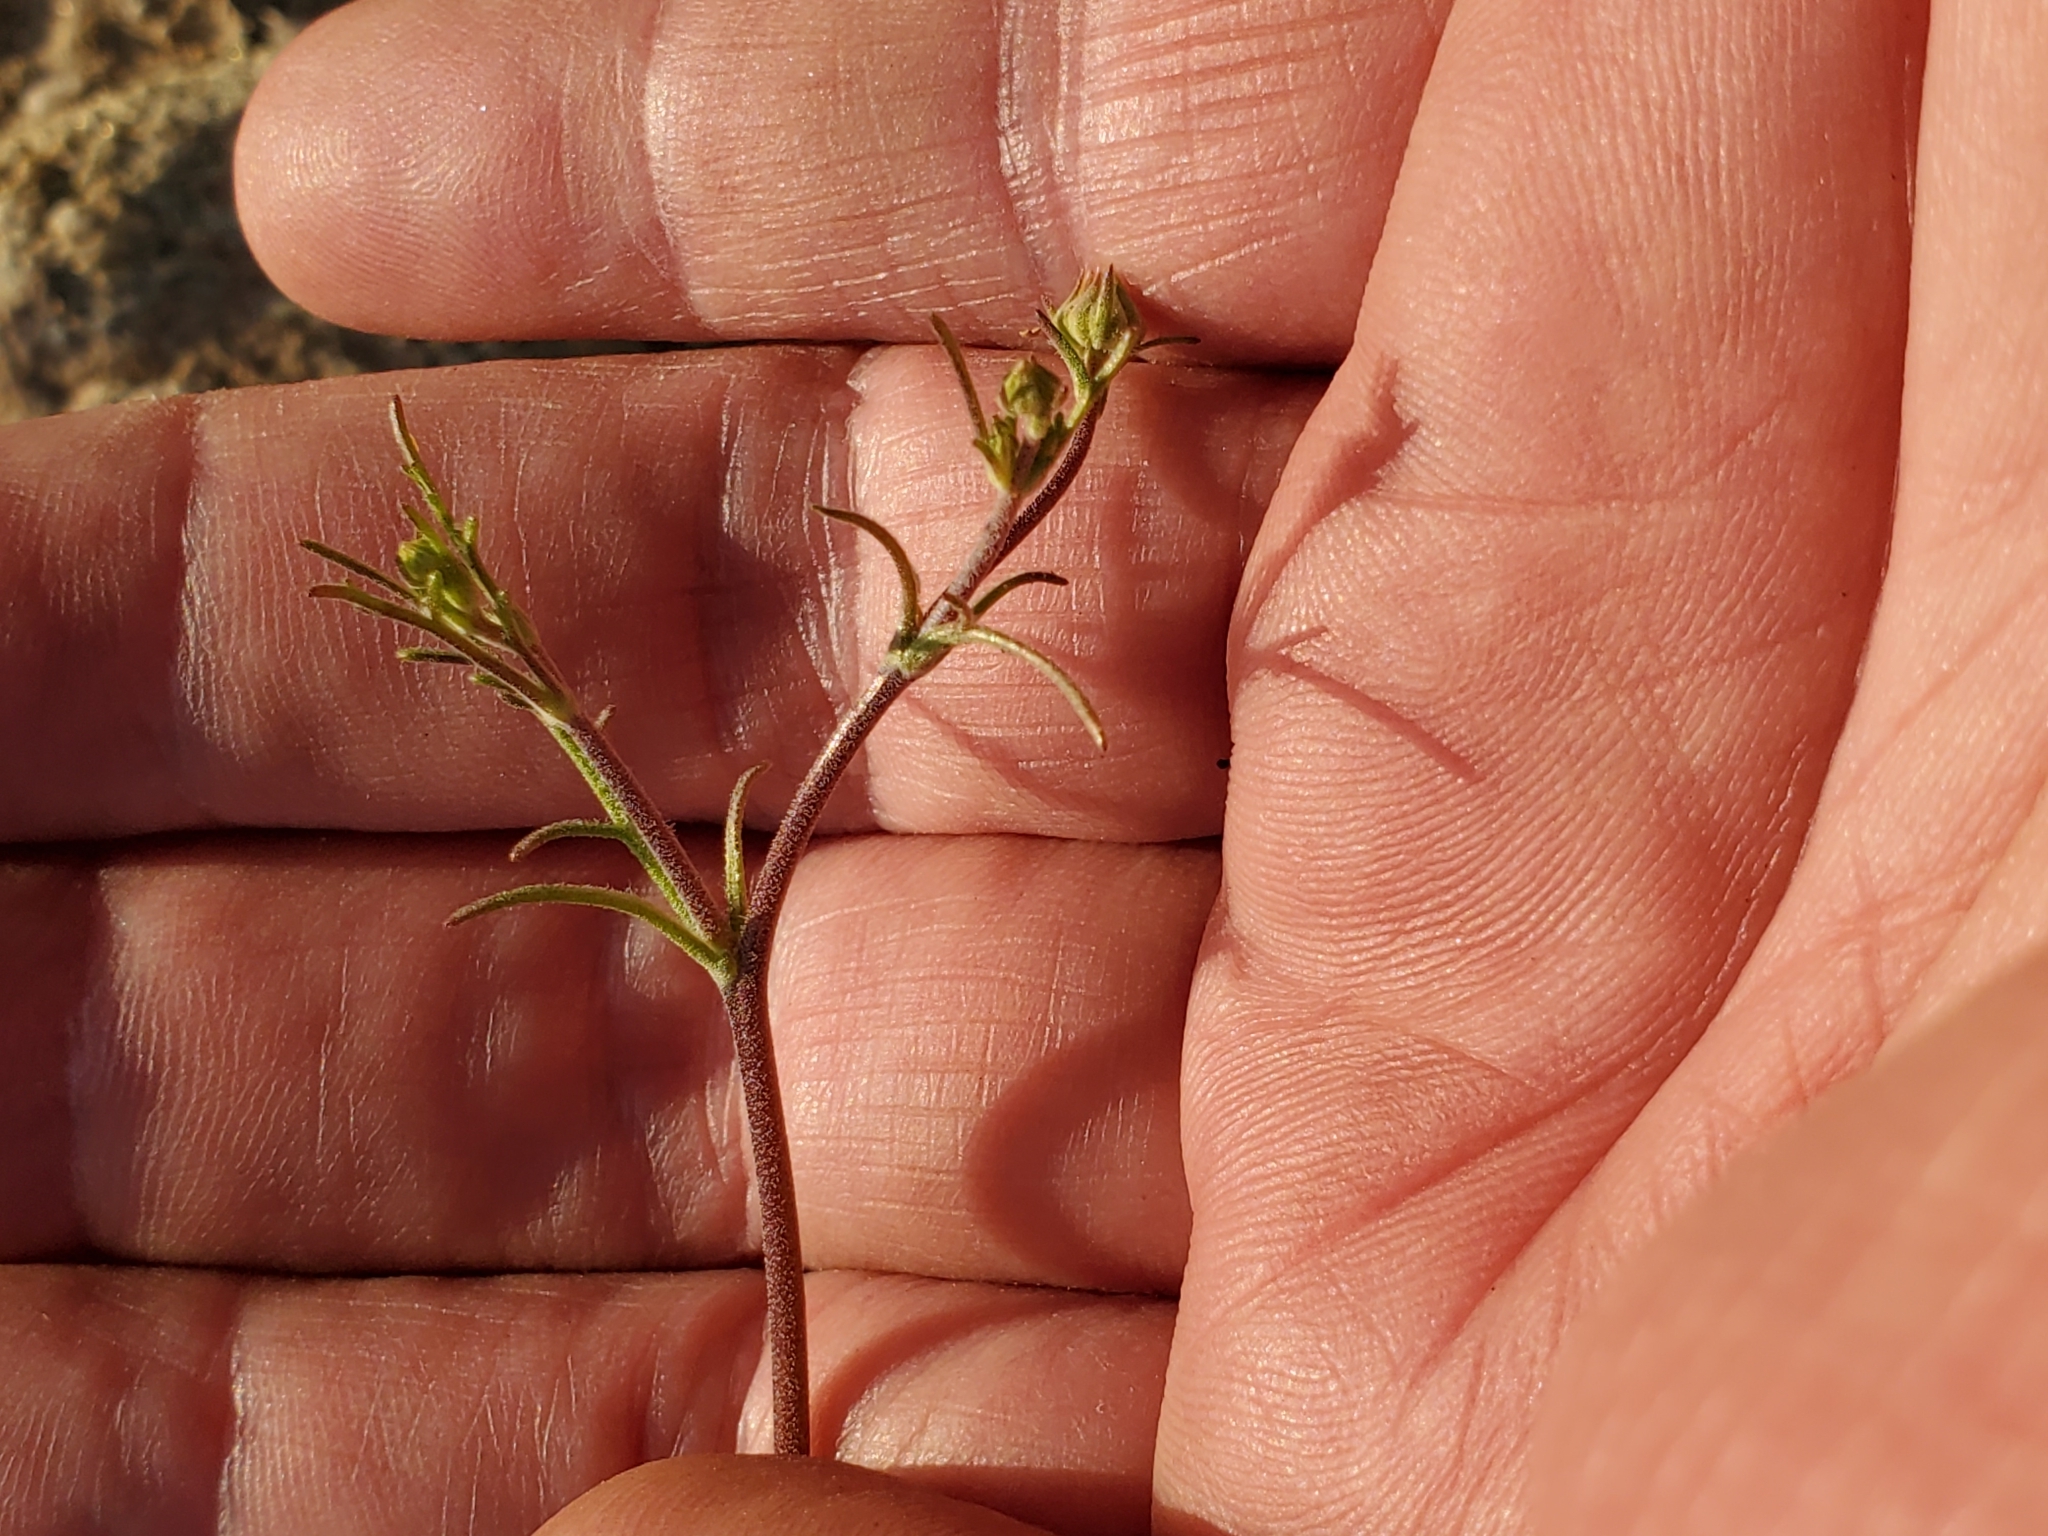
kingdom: Plantae
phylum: Tracheophyta
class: Magnoliopsida
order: Asterales
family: Asteraceae
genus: Chaenactis
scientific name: Chaenactis carphoclinia
